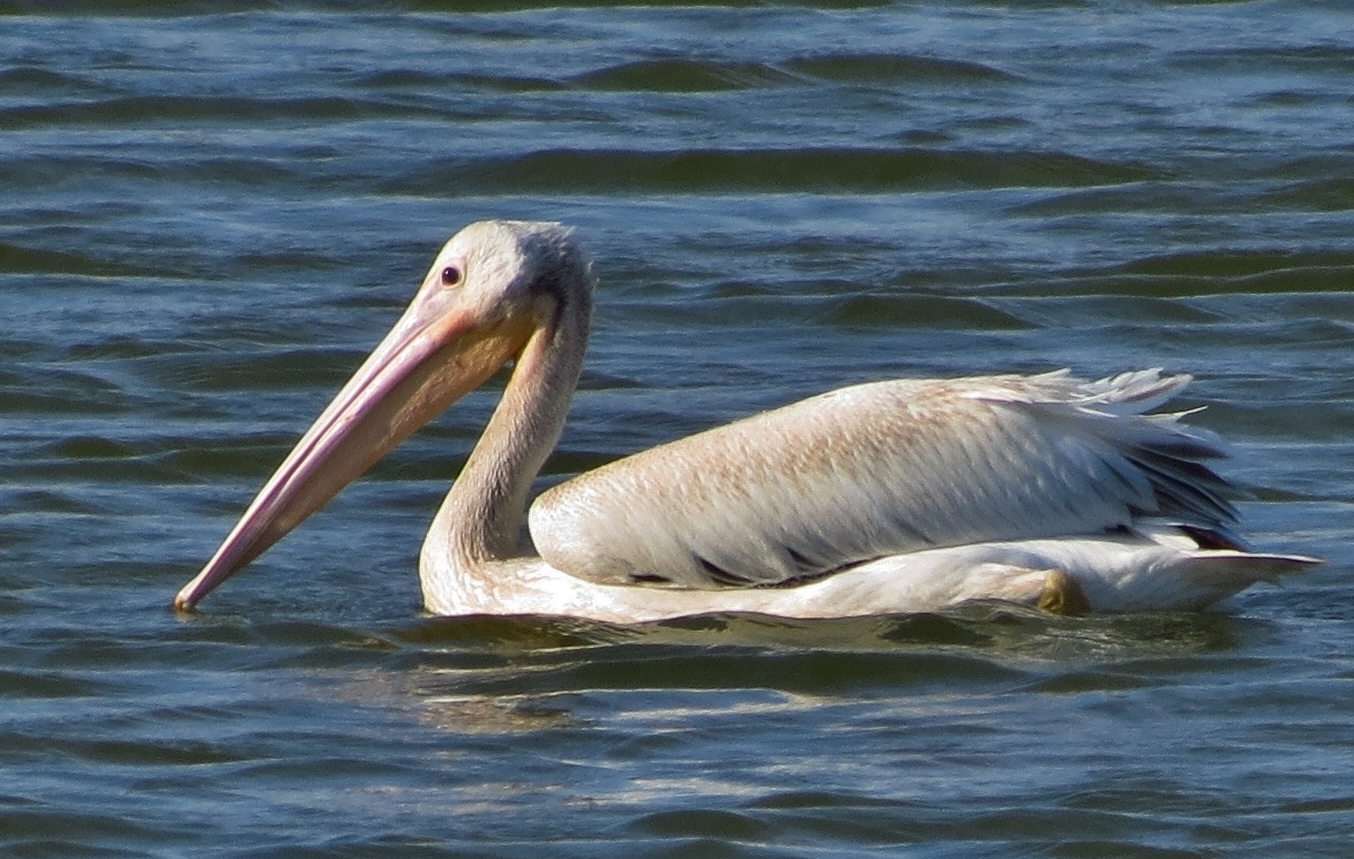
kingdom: Animalia
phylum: Chordata
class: Aves
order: Pelecaniformes
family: Pelecanidae
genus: Pelecanus
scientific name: Pelecanus erythrorhynchos
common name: American white pelican
